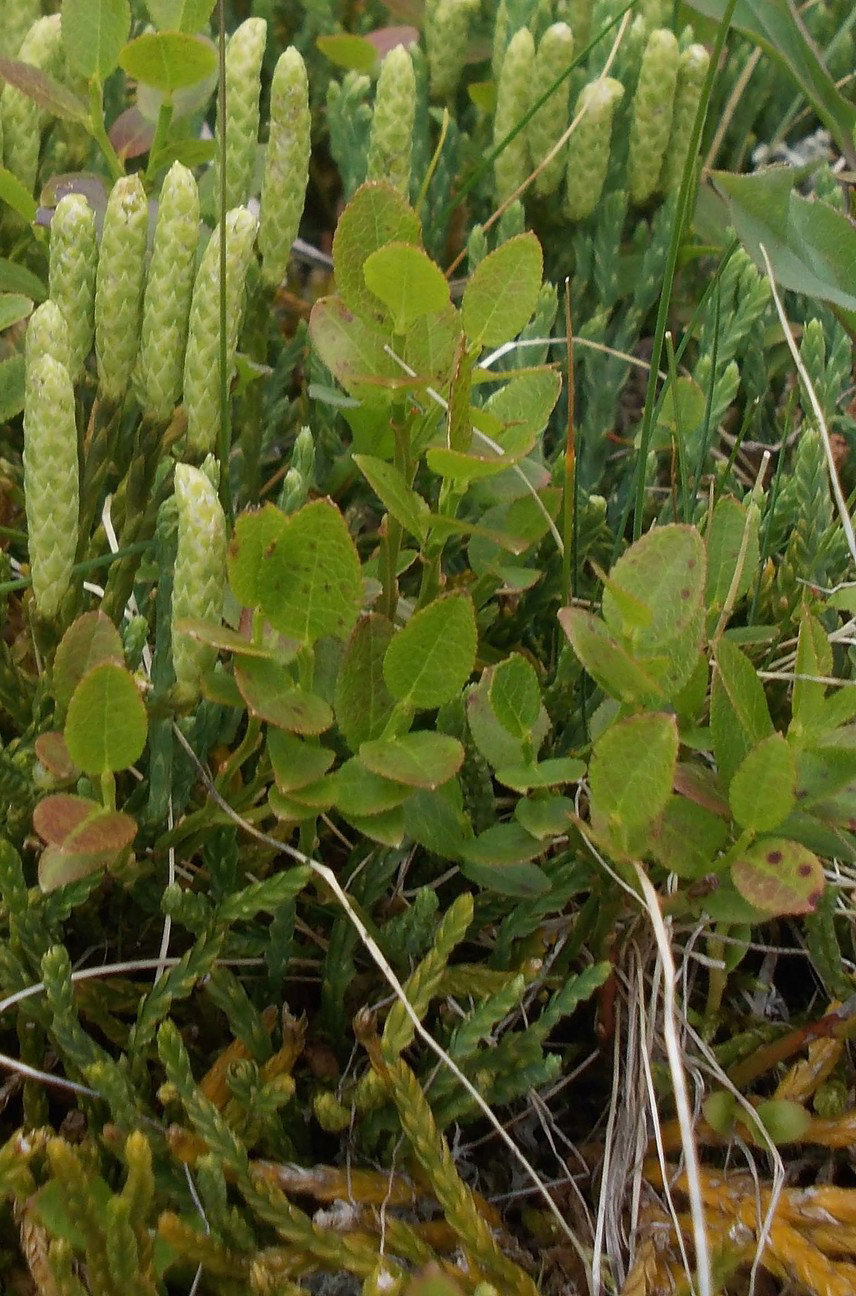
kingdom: Plantae
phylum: Tracheophyta
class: Magnoliopsida
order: Ericales
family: Ericaceae
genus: Vaccinium
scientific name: Vaccinium myrtillus
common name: Bilberry
